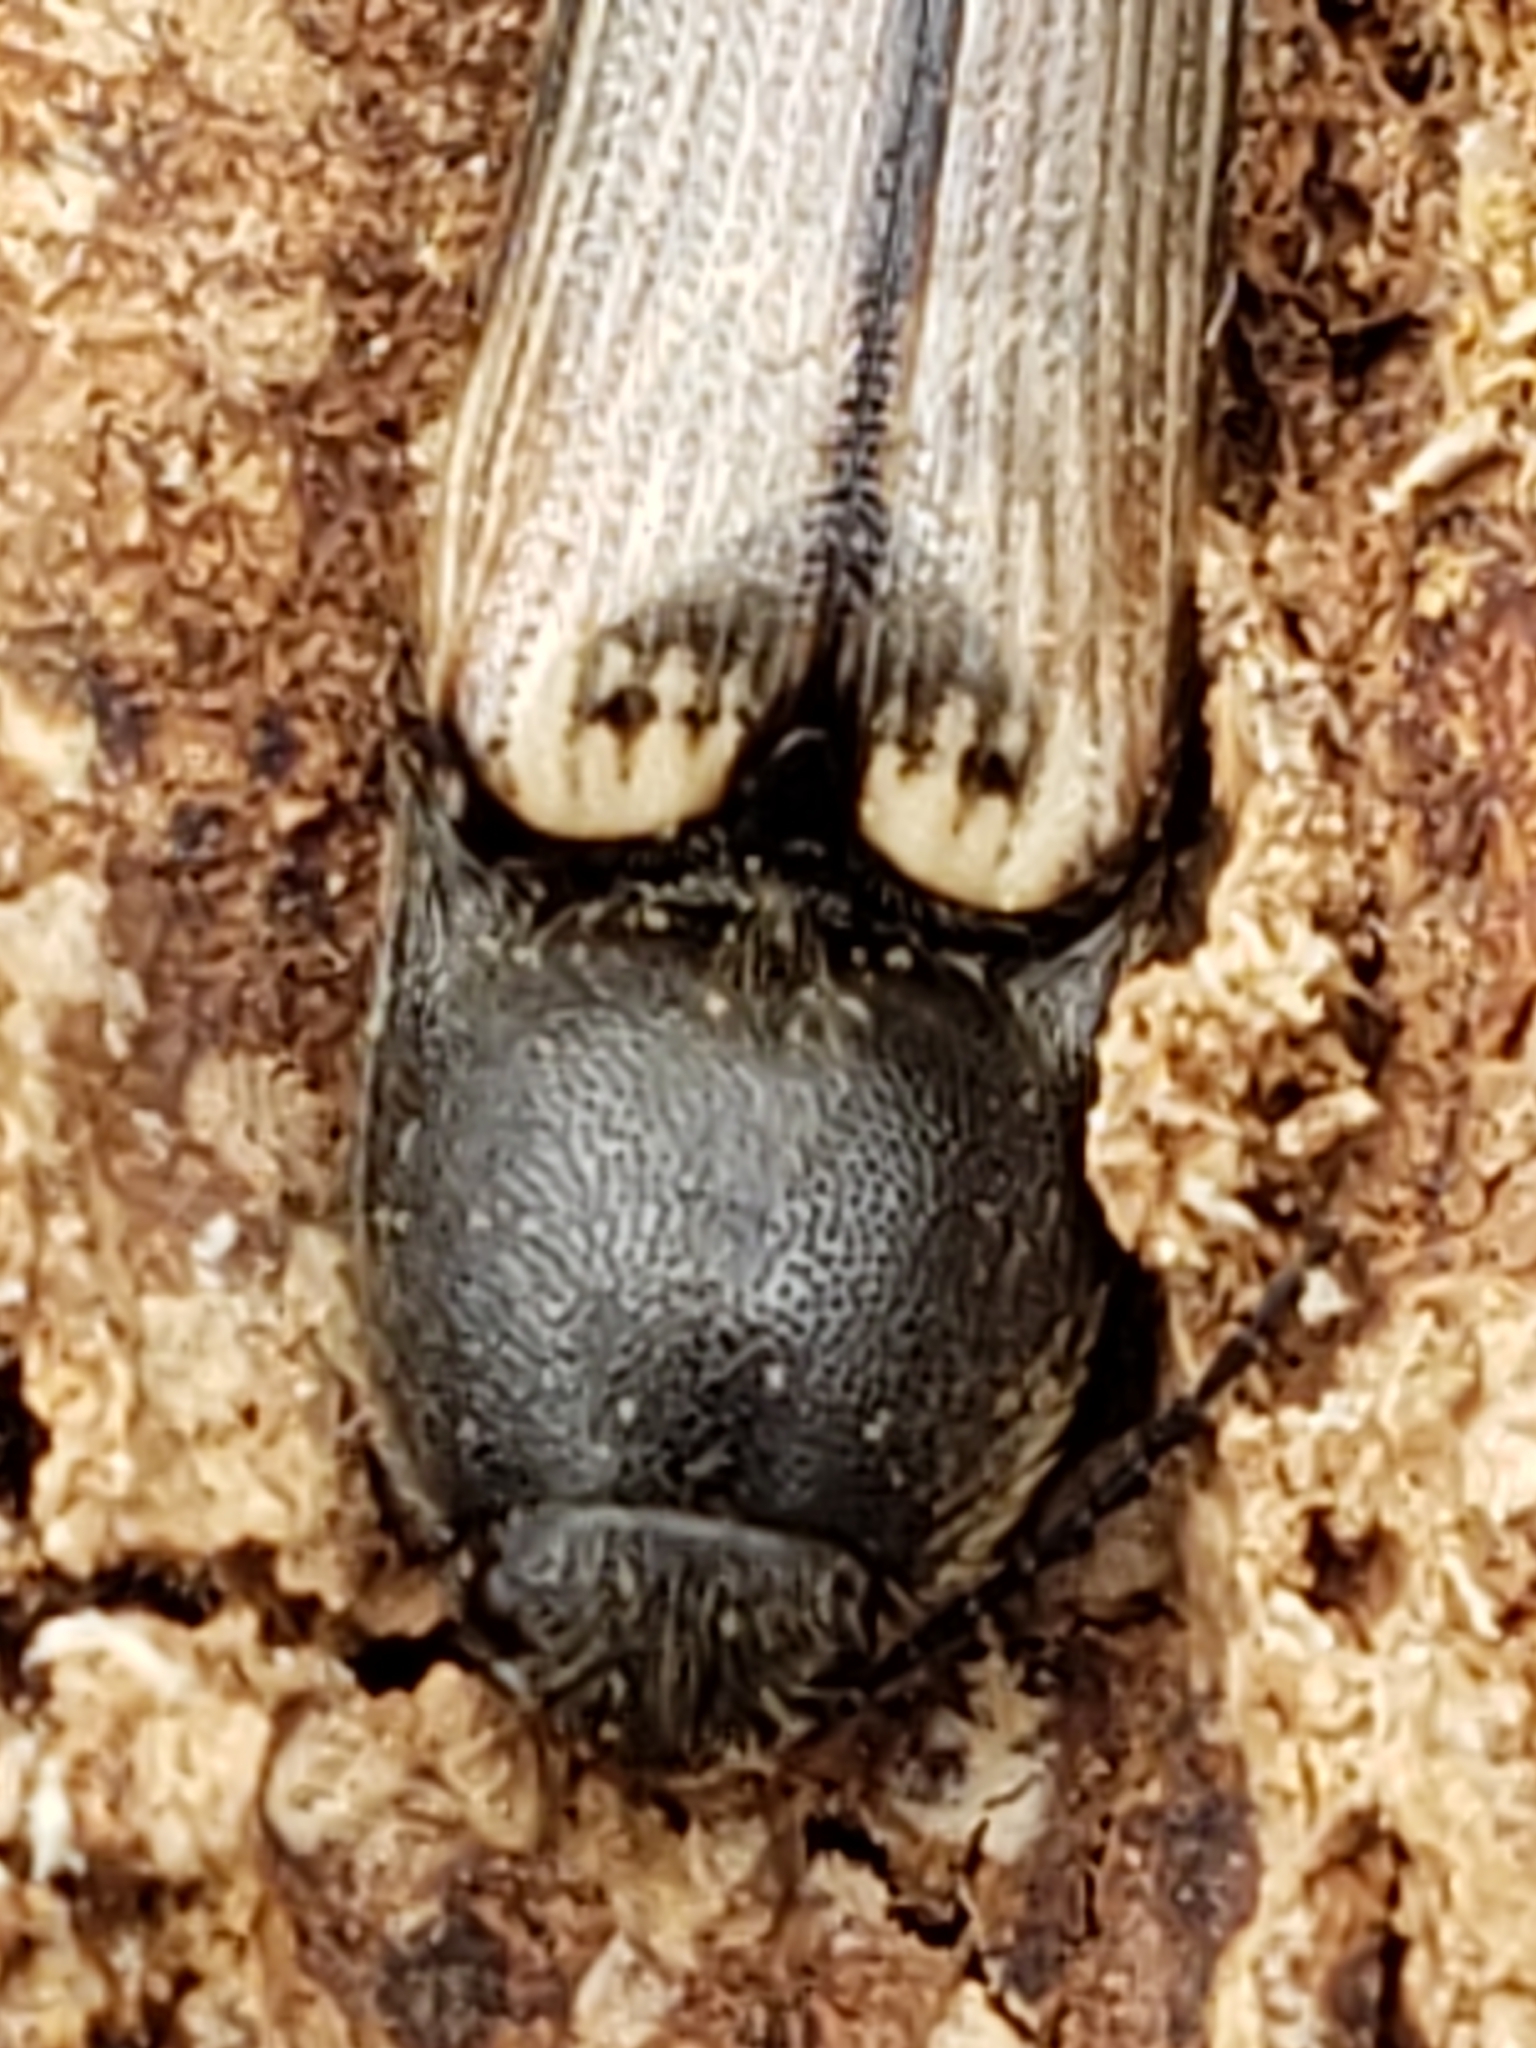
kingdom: Animalia
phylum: Arthropoda
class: Insecta
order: Coleoptera
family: Elateridae
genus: Ampedus
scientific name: Ampedus linteus
